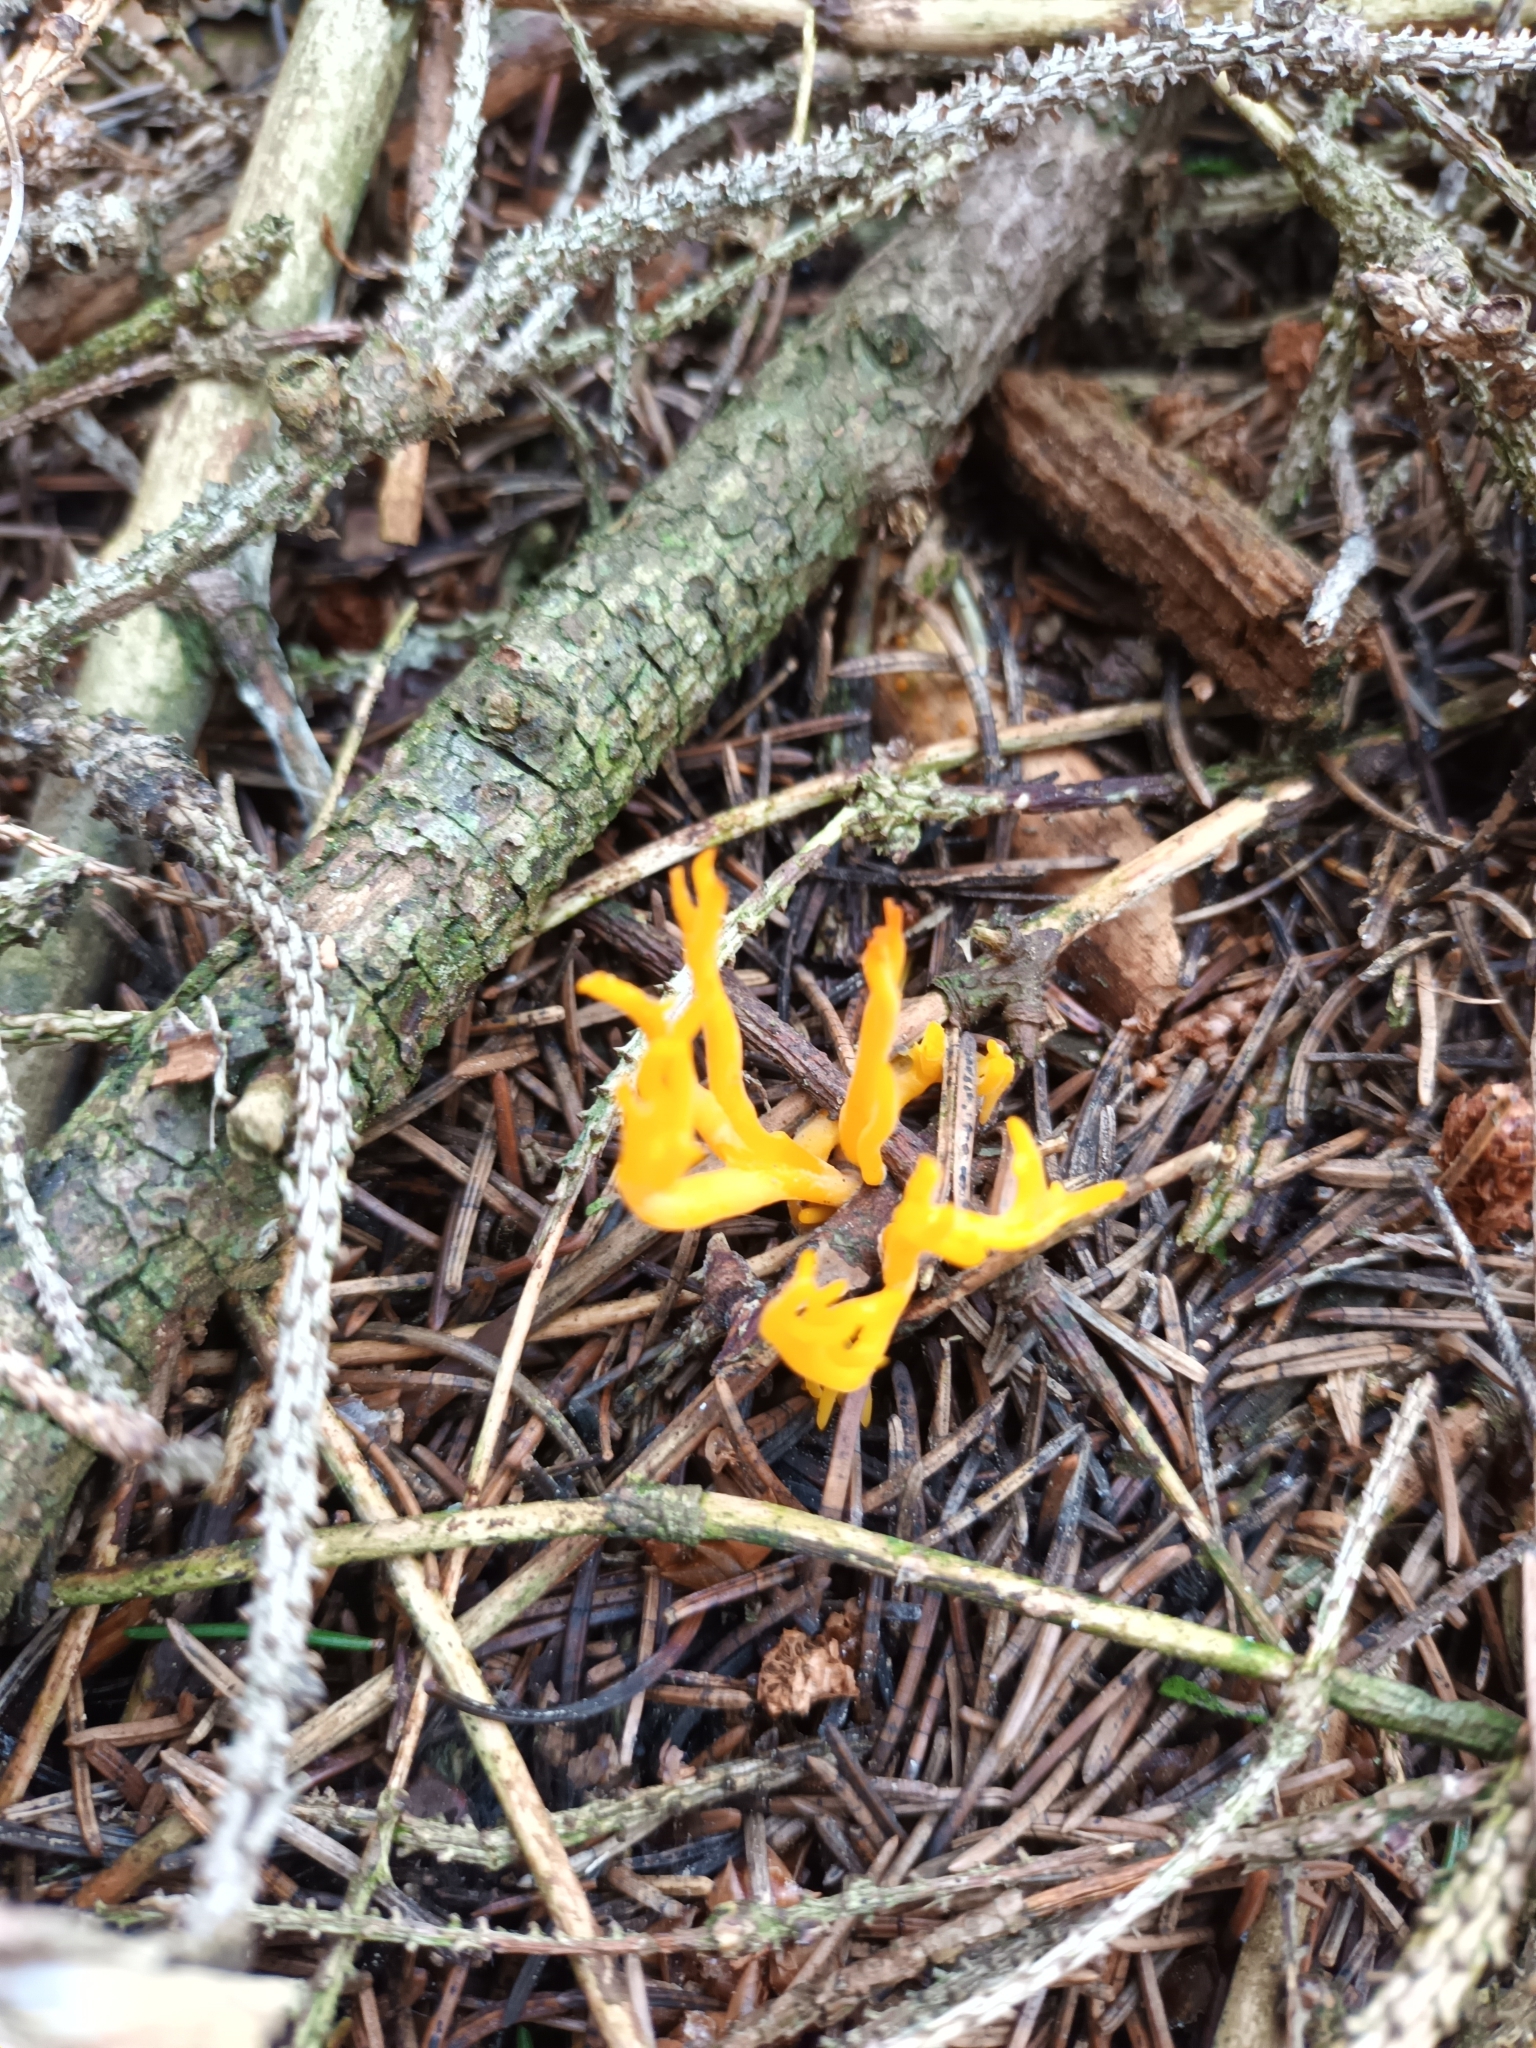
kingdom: Fungi
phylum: Basidiomycota
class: Dacrymycetes
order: Dacrymycetales
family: Dacrymycetaceae
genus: Calocera
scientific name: Calocera viscosa
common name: Yellow stagshorn
